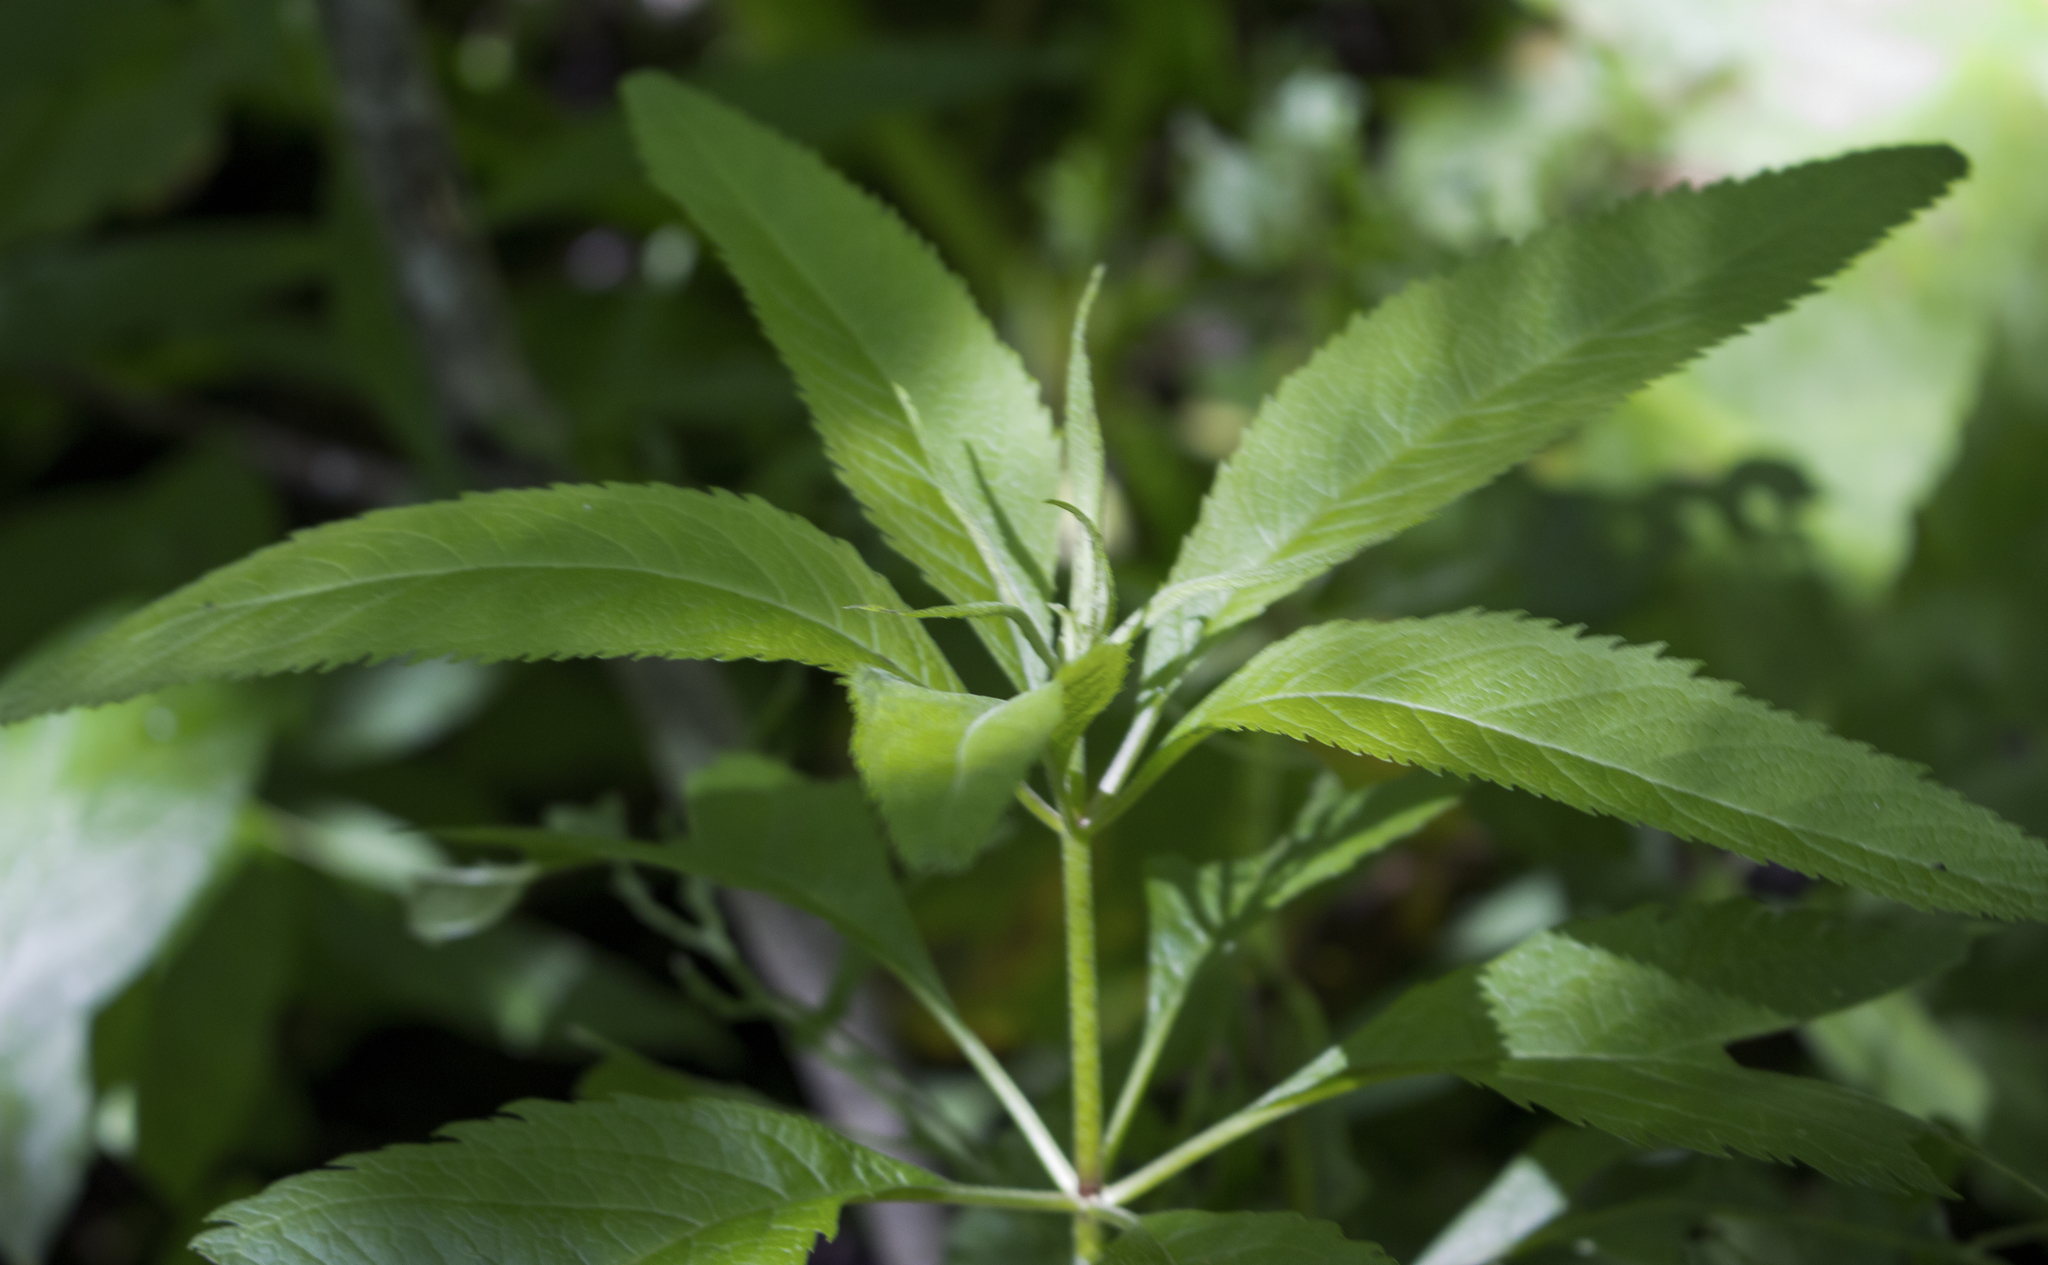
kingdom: Plantae
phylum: Tracheophyta
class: Magnoliopsida
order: Asterales
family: Asteraceae
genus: Eutrochium
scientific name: Eutrochium purpureum
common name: Gravelroot
